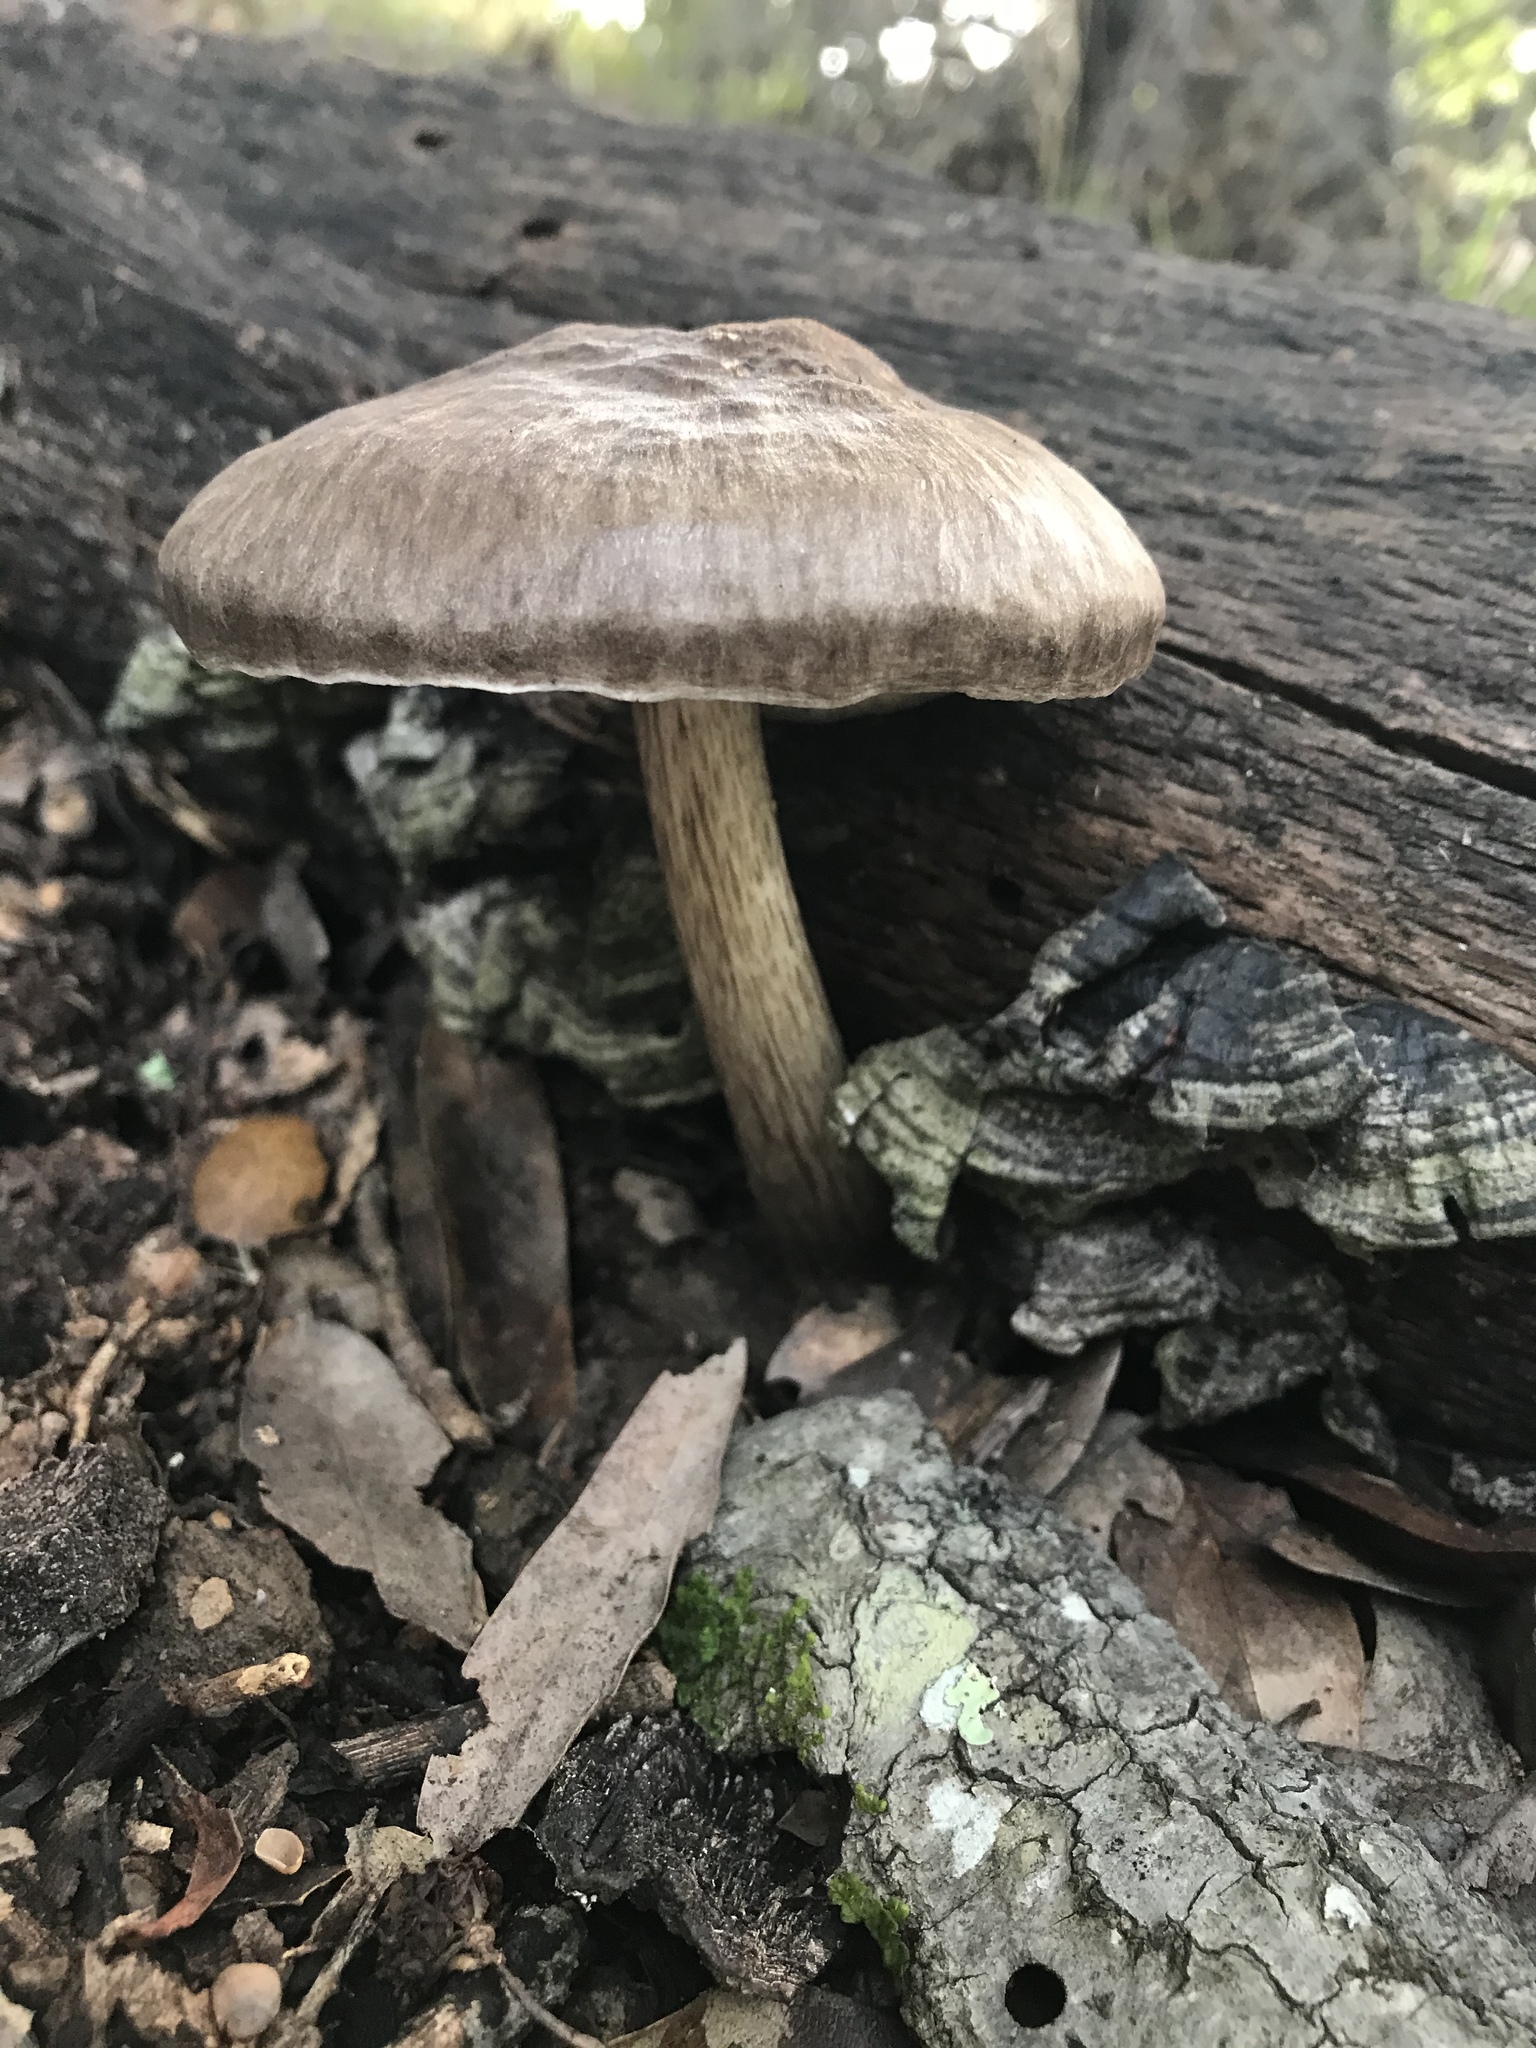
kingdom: Fungi
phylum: Basidiomycota
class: Agaricomycetes
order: Agaricales
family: Pluteaceae
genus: Pluteus
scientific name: Pluteus exilis
